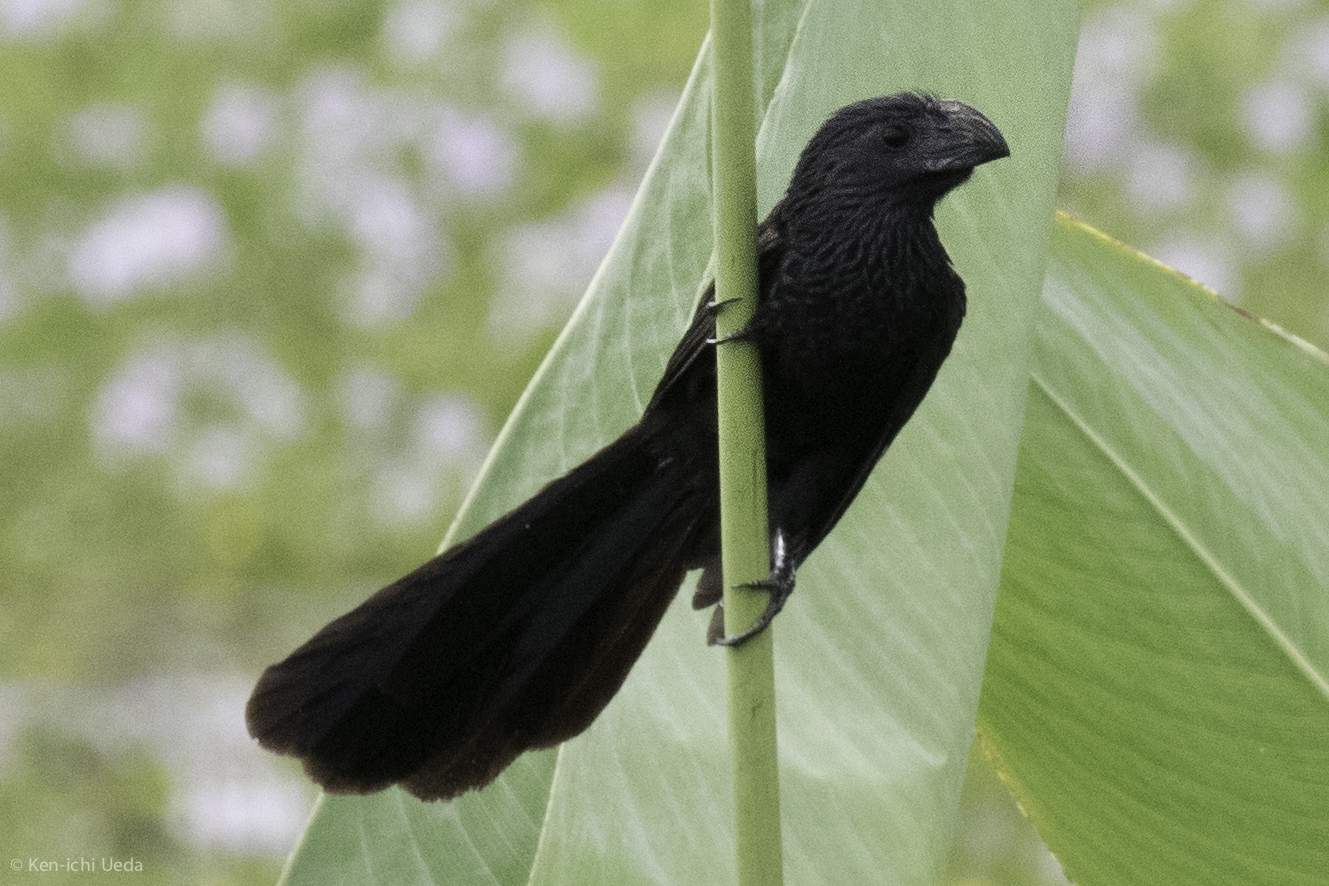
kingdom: Animalia
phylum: Chordata
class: Aves
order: Cuculiformes
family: Cuculidae
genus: Crotophaga
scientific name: Crotophaga sulcirostris
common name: Groove-billed ani
